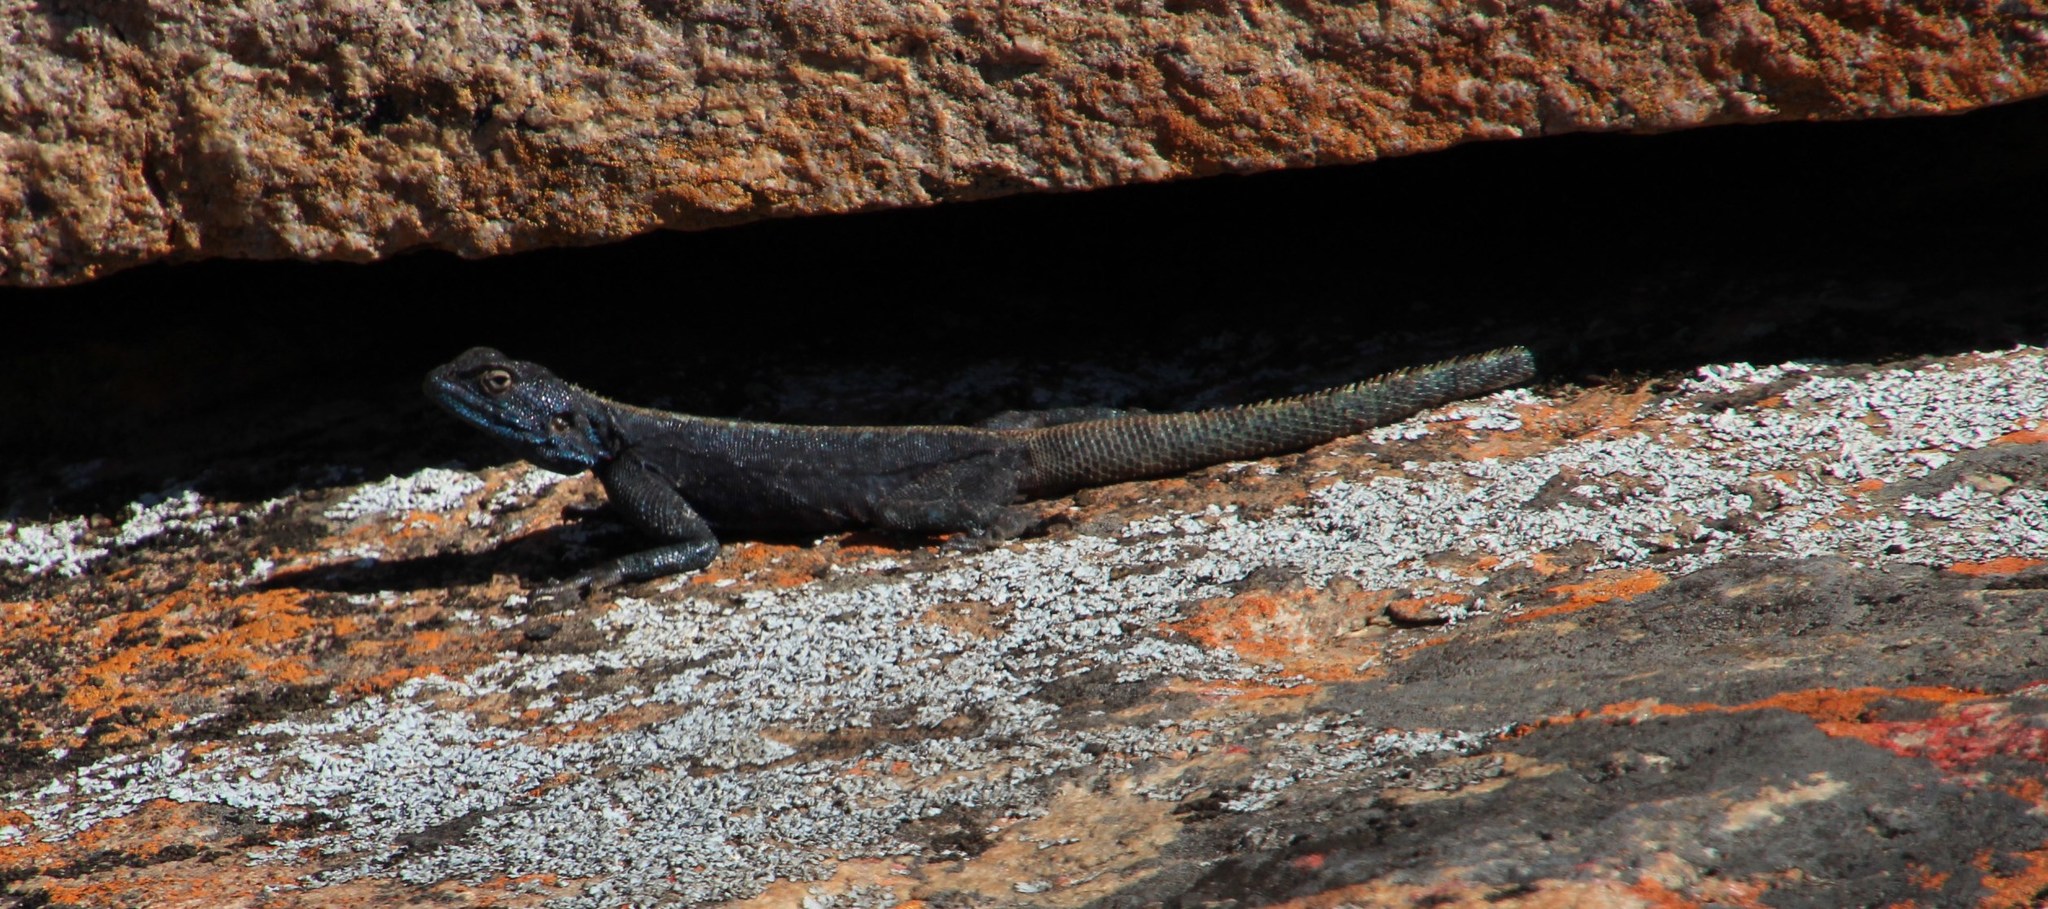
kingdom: Animalia
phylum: Chordata
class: Squamata
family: Agamidae
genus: Agama
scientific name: Agama atra
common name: Southern african rock agama
